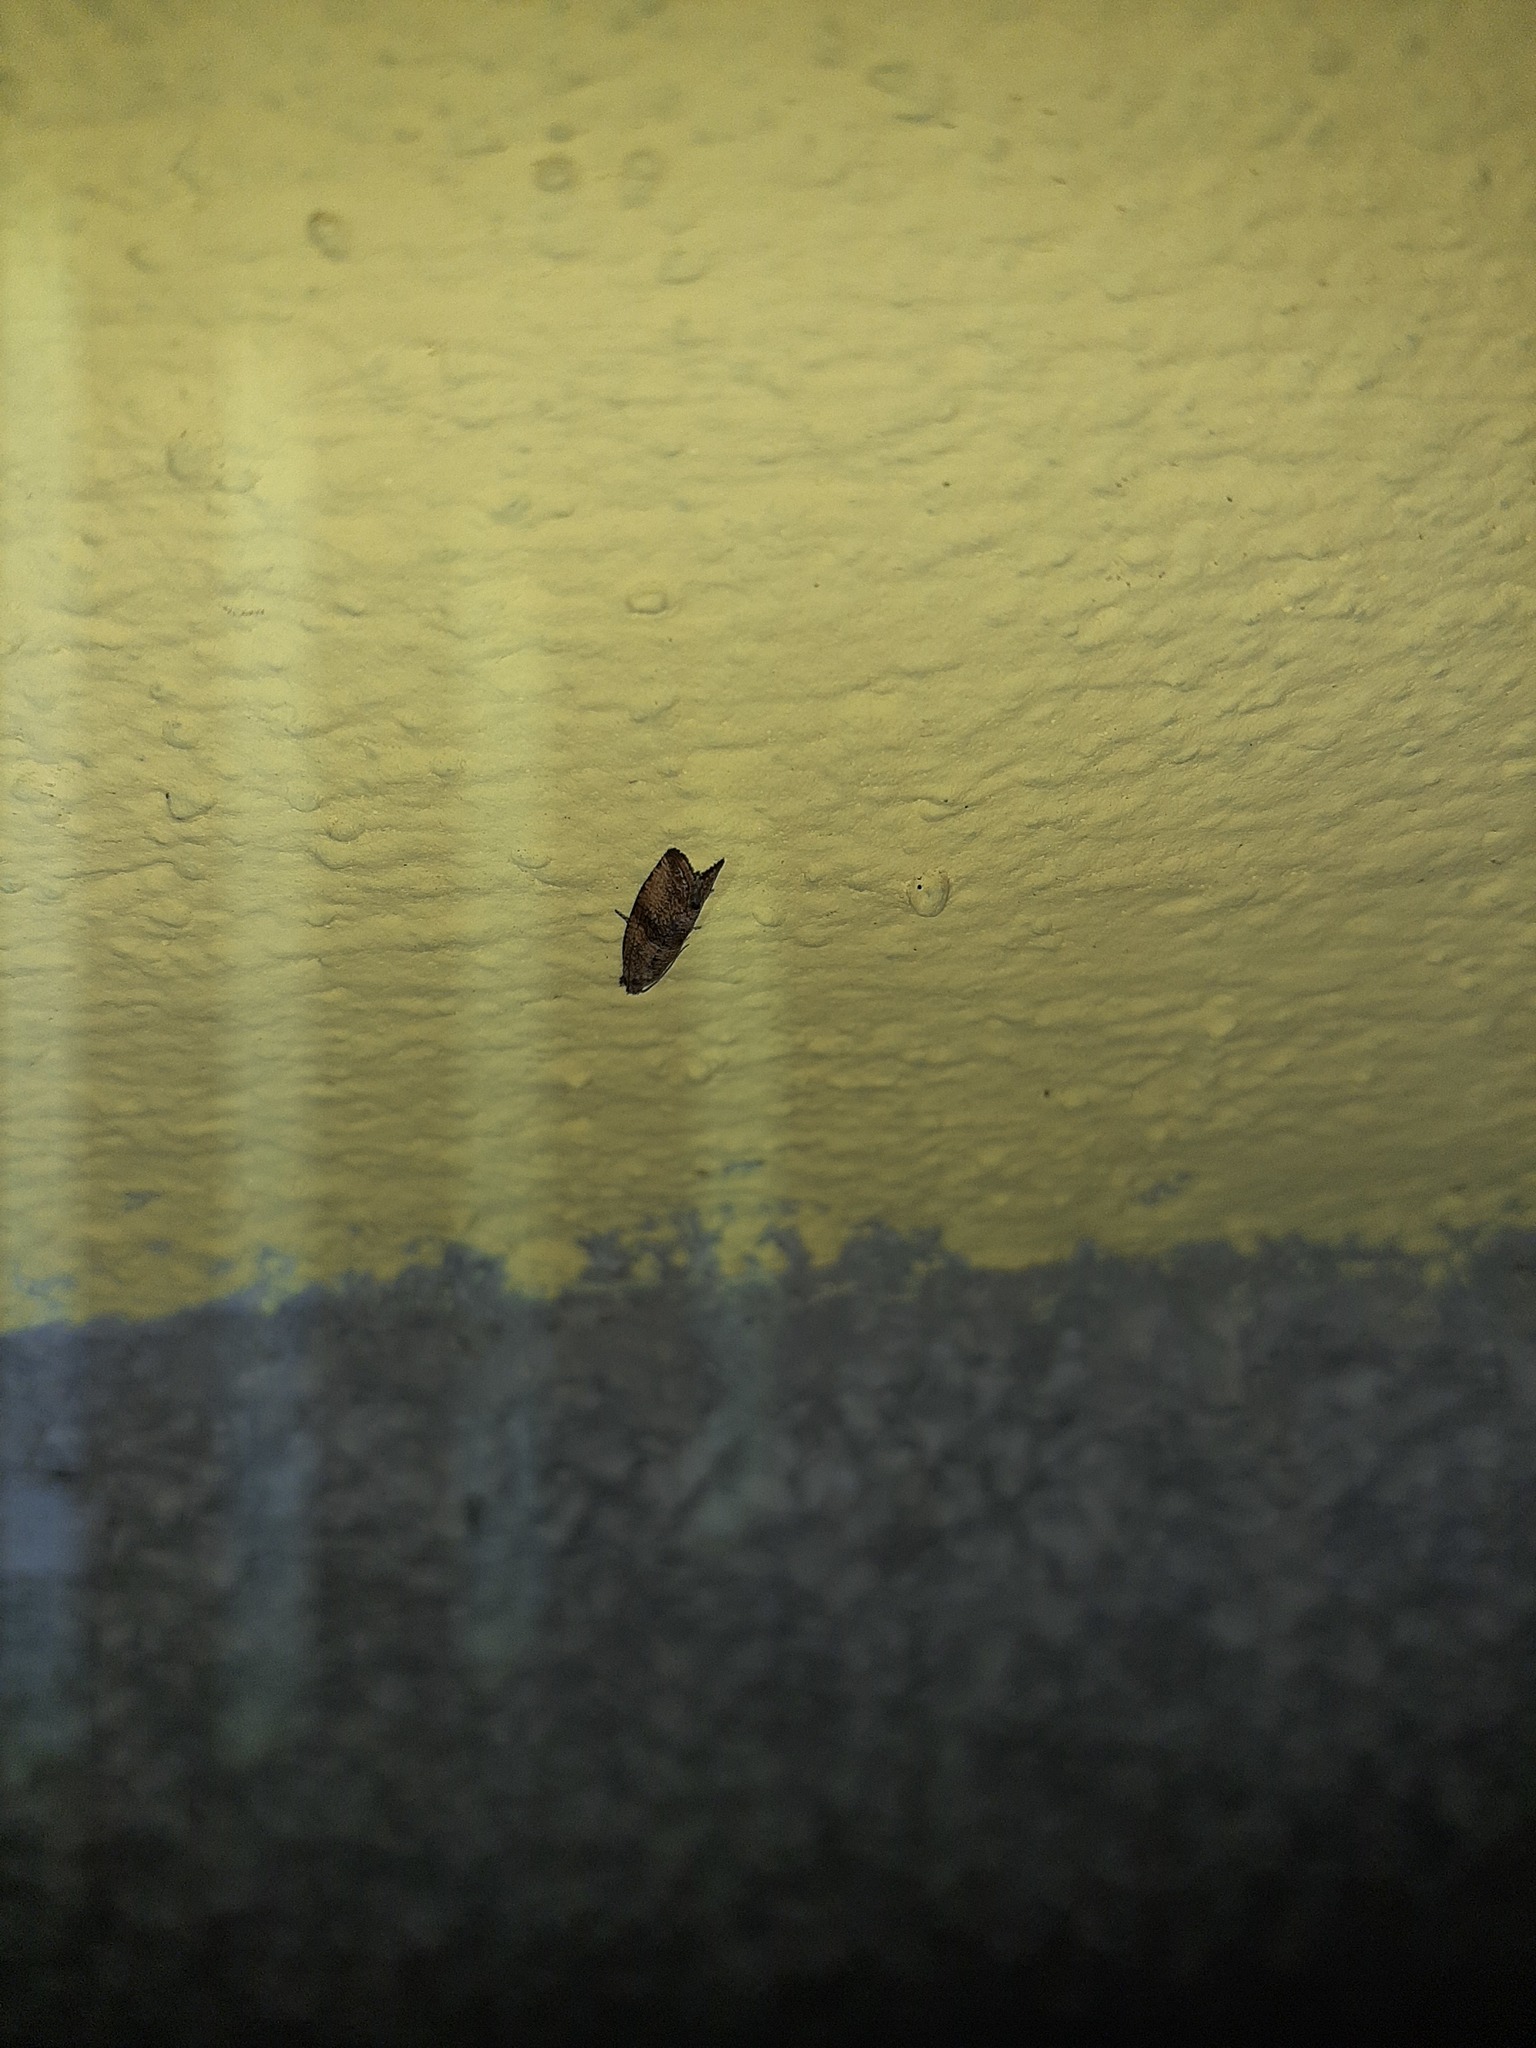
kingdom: Animalia
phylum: Arthropoda
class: Insecta
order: Lepidoptera
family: Tortricidae
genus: Celypha
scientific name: Celypha striana
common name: Barred marble
